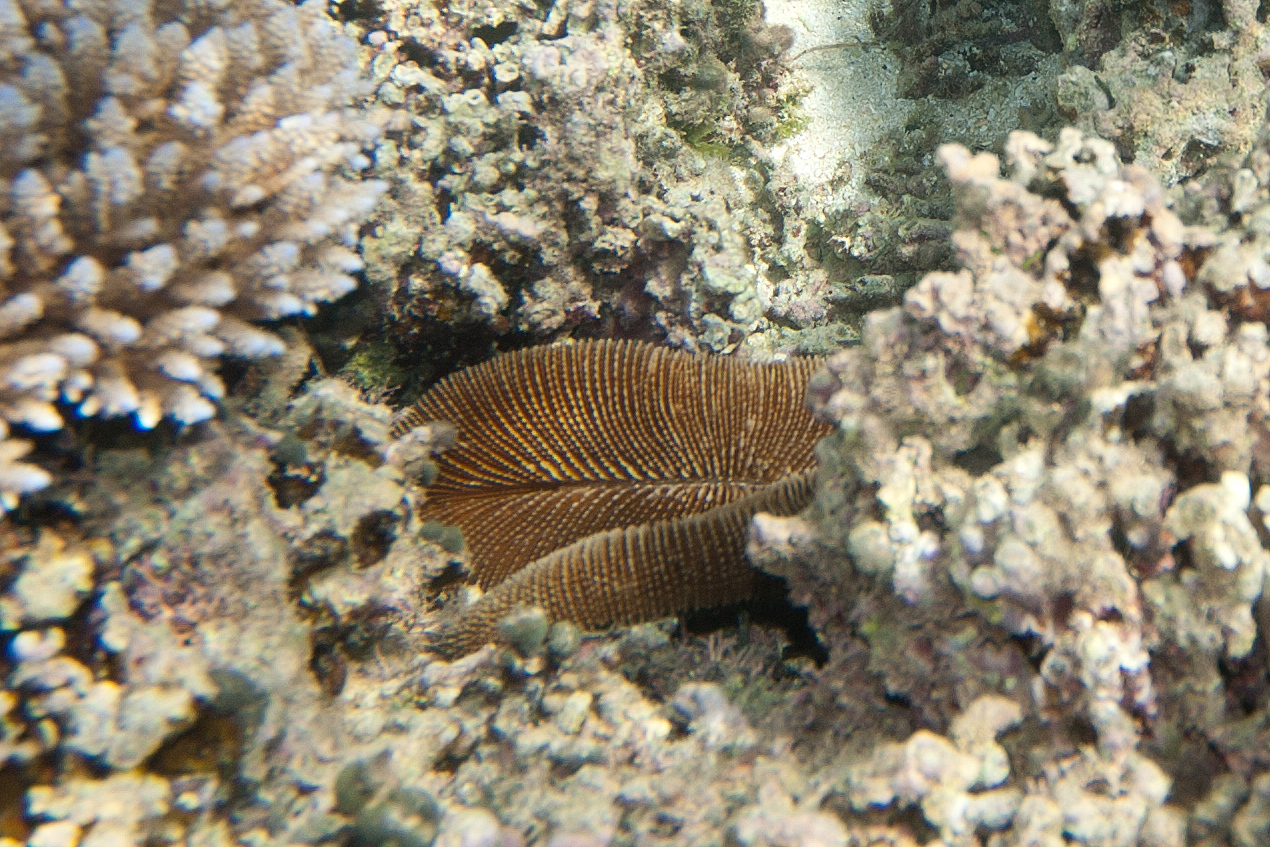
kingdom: Animalia
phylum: Cnidaria
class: Anthozoa
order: Scleractinia
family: Fungiidae
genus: Ctenactis
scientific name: Ctenactis echinata
